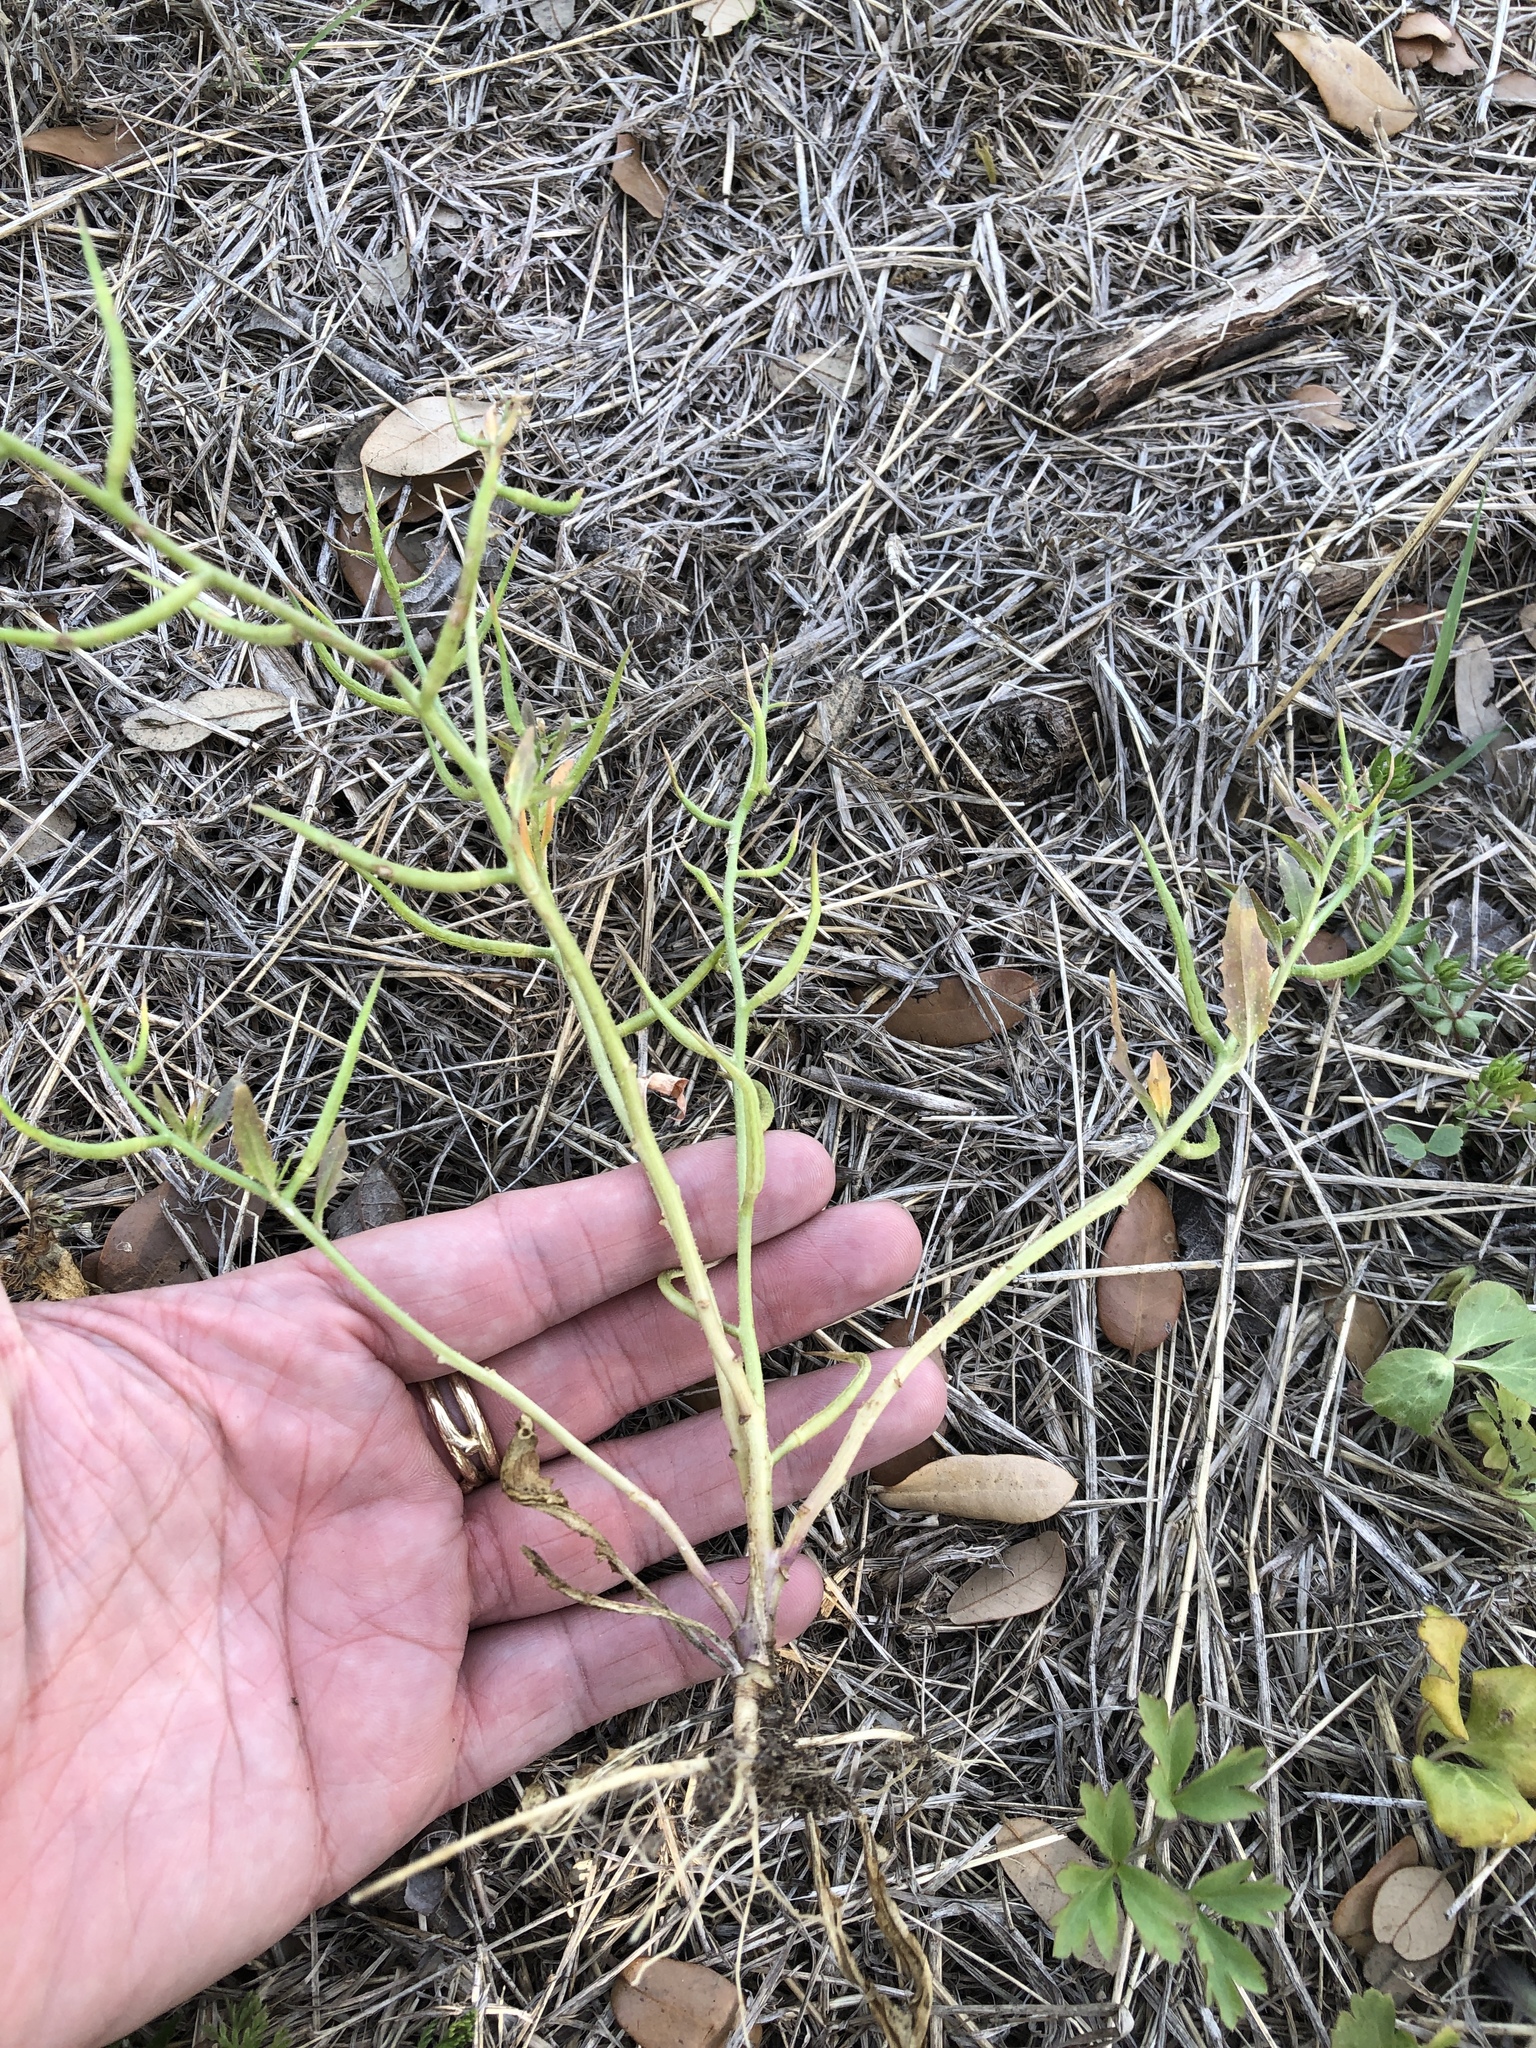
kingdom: Plantae
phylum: Tracheophyta
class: Magnoliopsida
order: Brassicales
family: Brassicaceae
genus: Chorispora
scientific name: Chorispora tenella
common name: Crossflower
